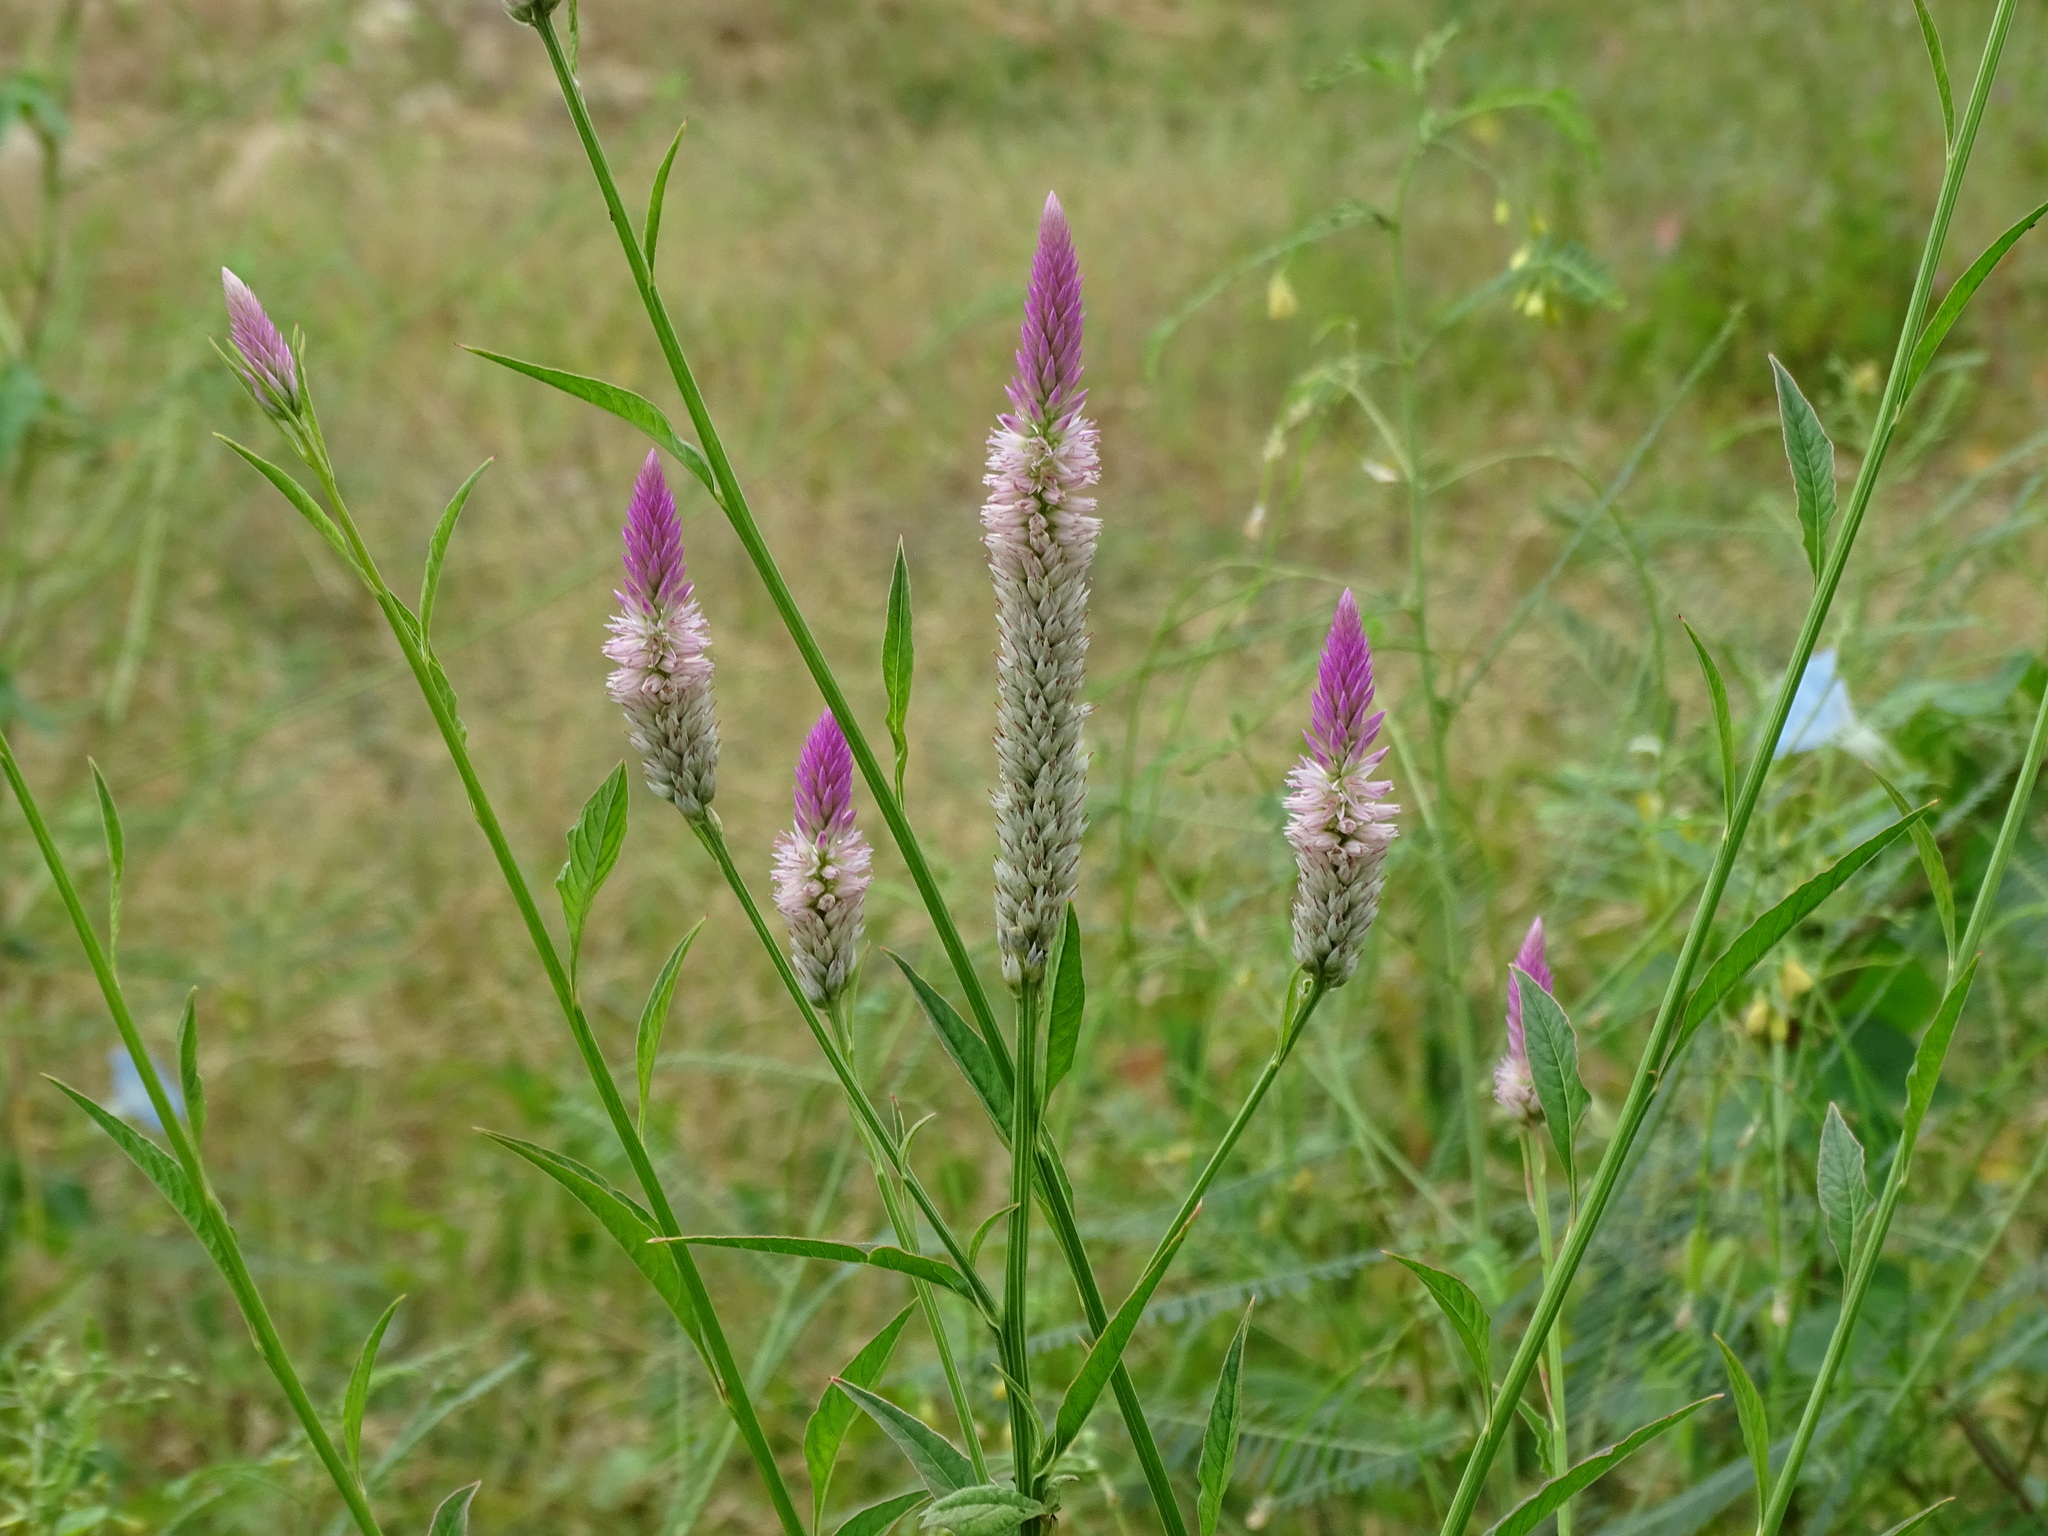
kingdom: Plantae
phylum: Tracheophyta
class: Magnoliopsida
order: Caryophyllales
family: Amaranthaceae
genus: Celosia
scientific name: Celosia argentea
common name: Feather cockscomb
